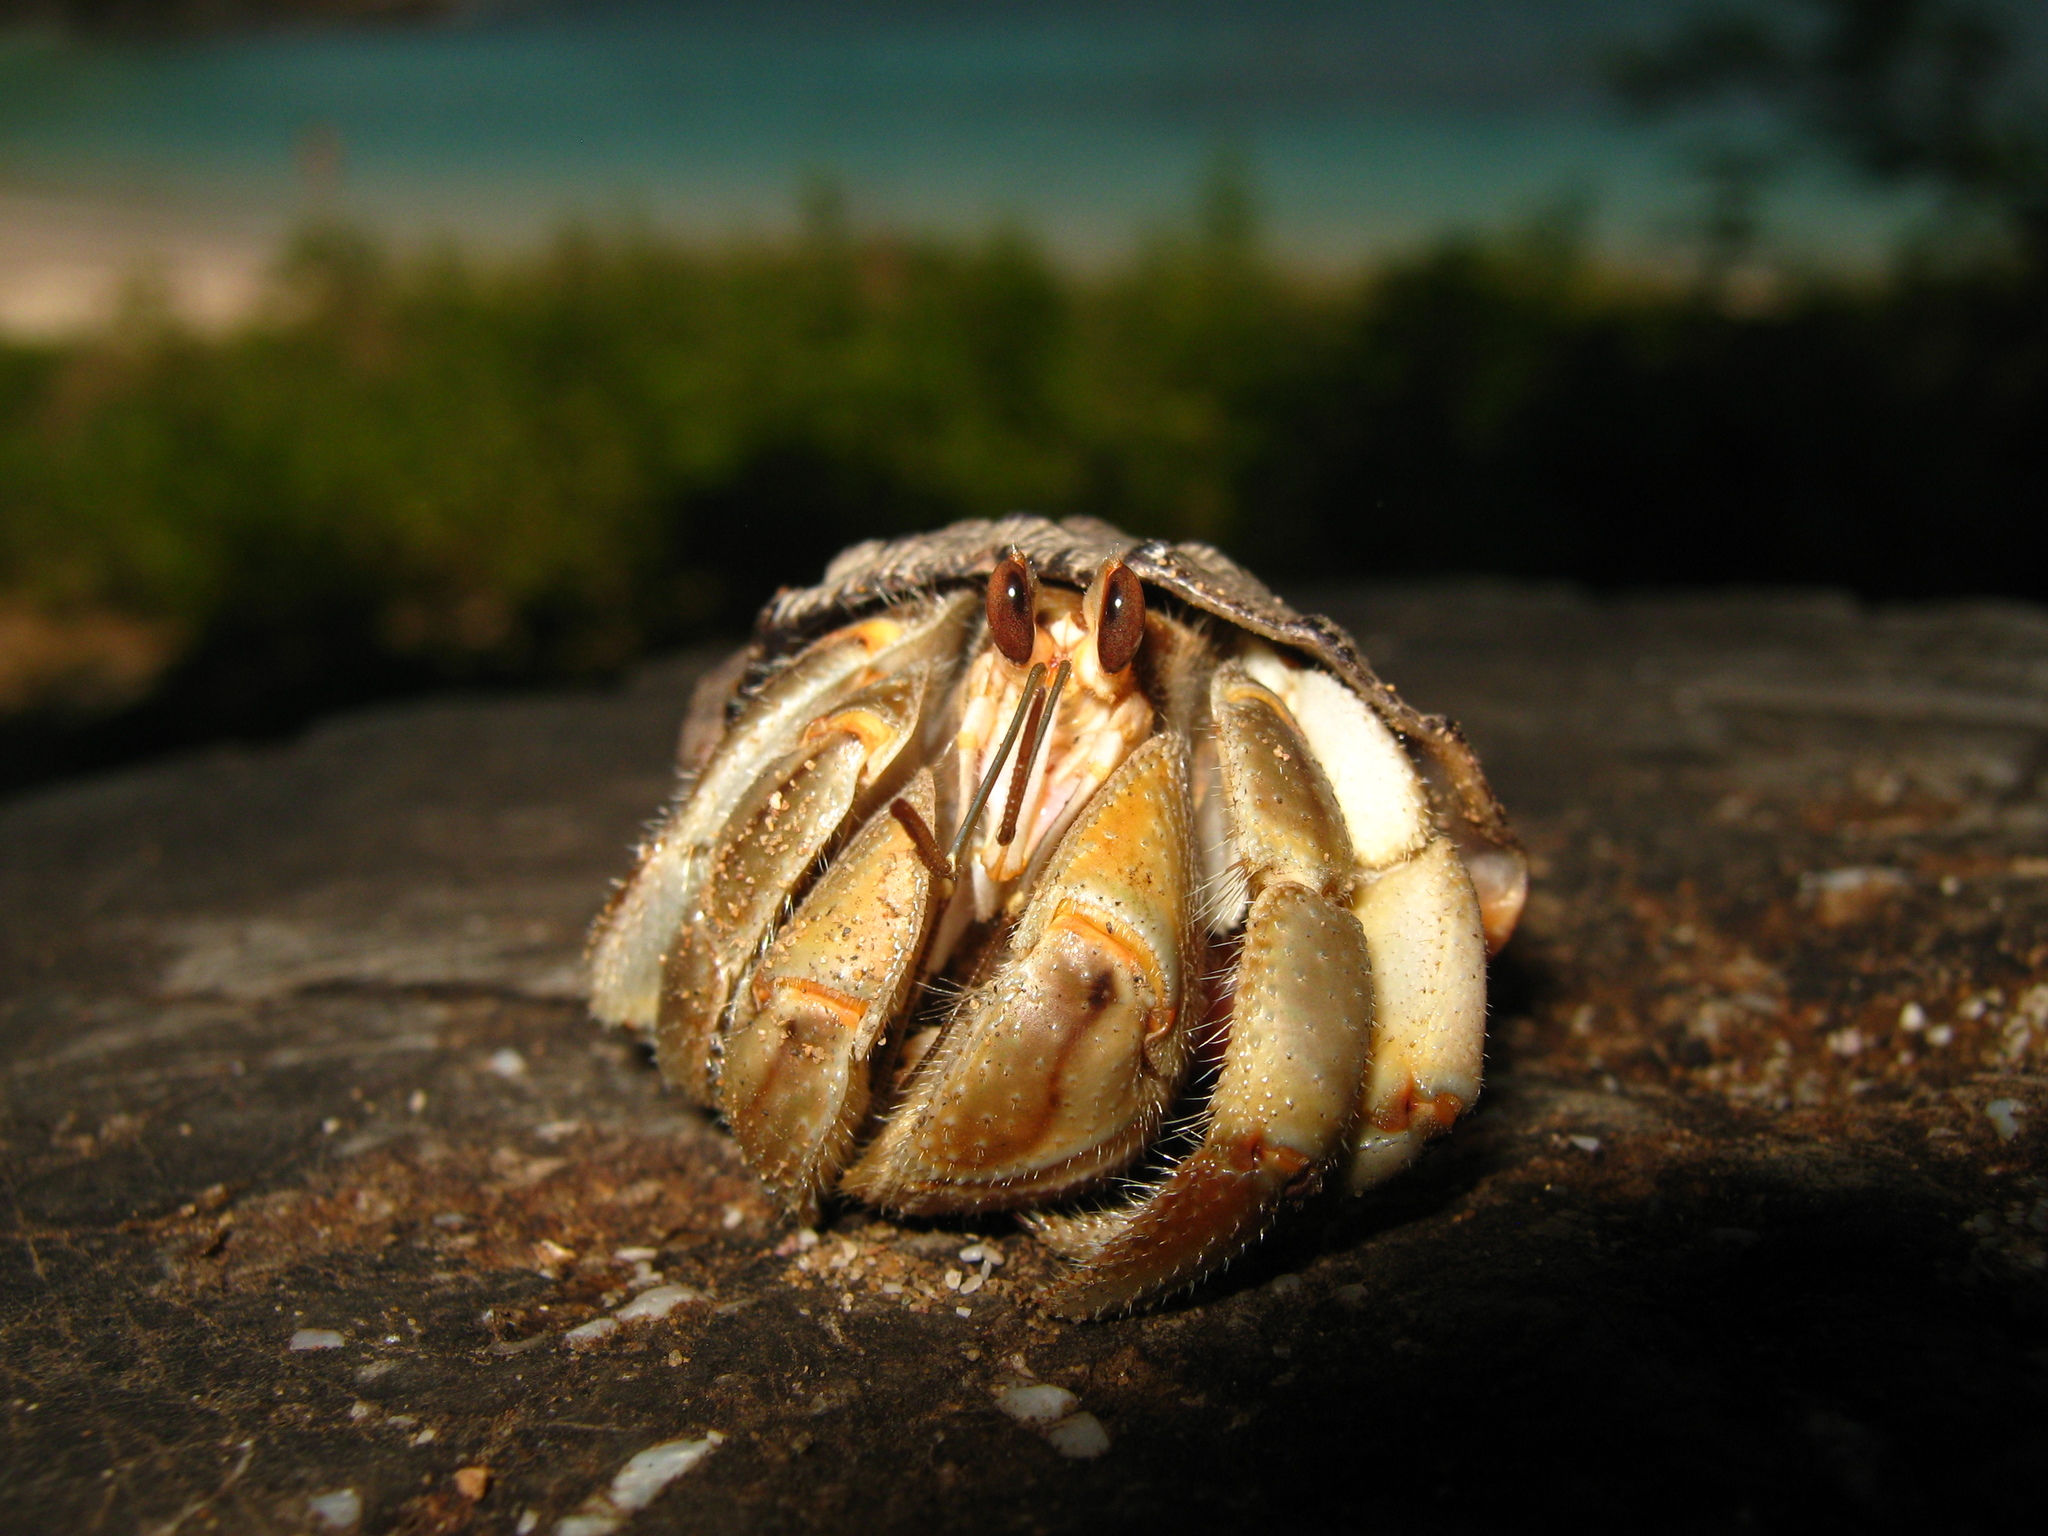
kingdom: Animalia
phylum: Arthropoda
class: Malacostraca
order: Decapoda
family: Coenobitidae
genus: Coenobita
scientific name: Coenobita compressus
